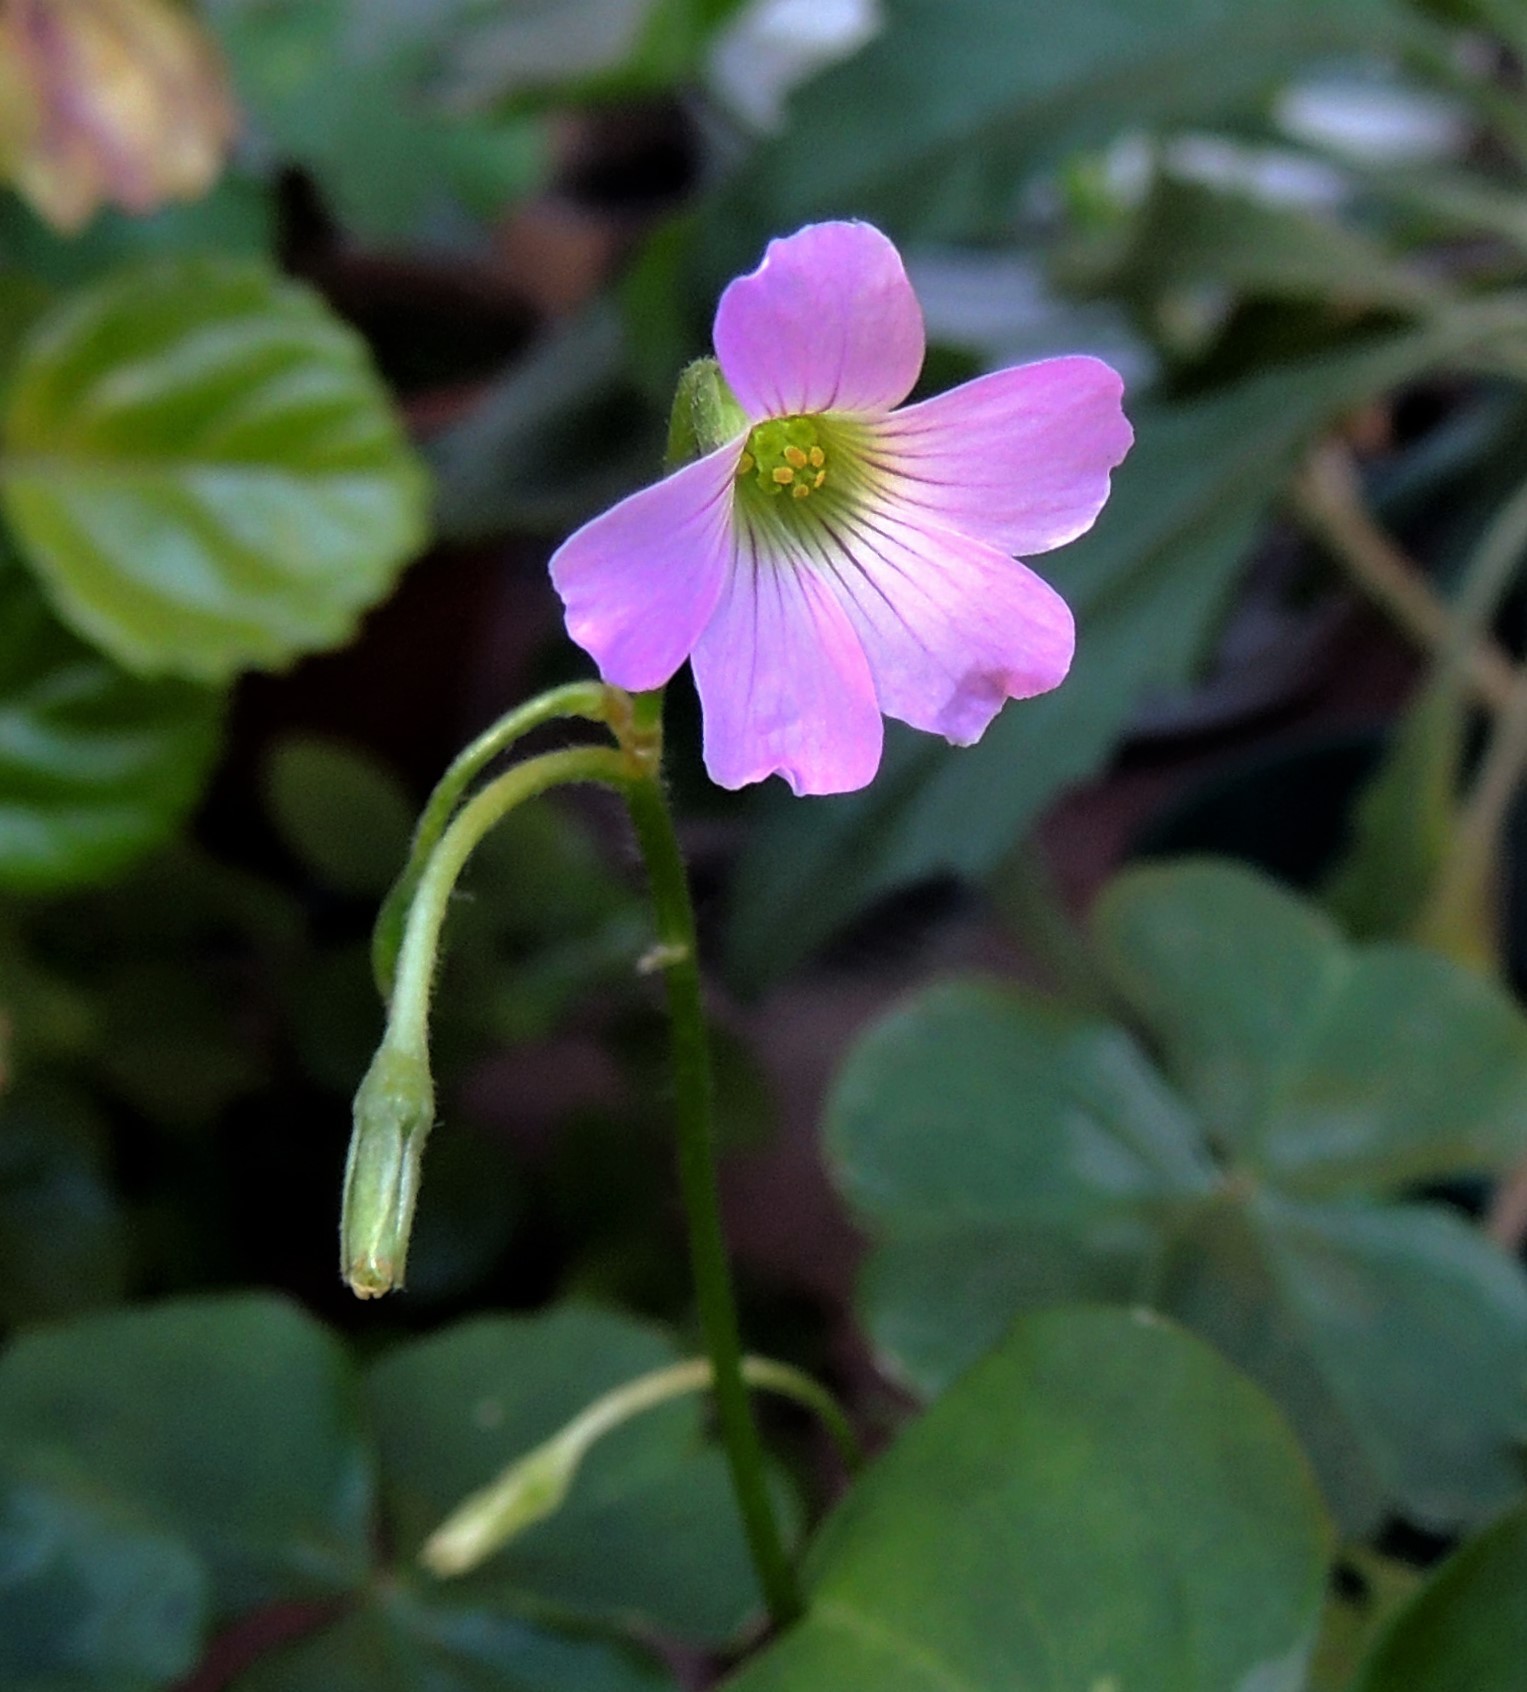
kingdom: Plantae
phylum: Tracheophyta
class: Magnoliopsida
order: Oxalidales
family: Oxalidaceae
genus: Oxalis
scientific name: Oxalis debilis
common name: Large-flowered pink-sorrel
